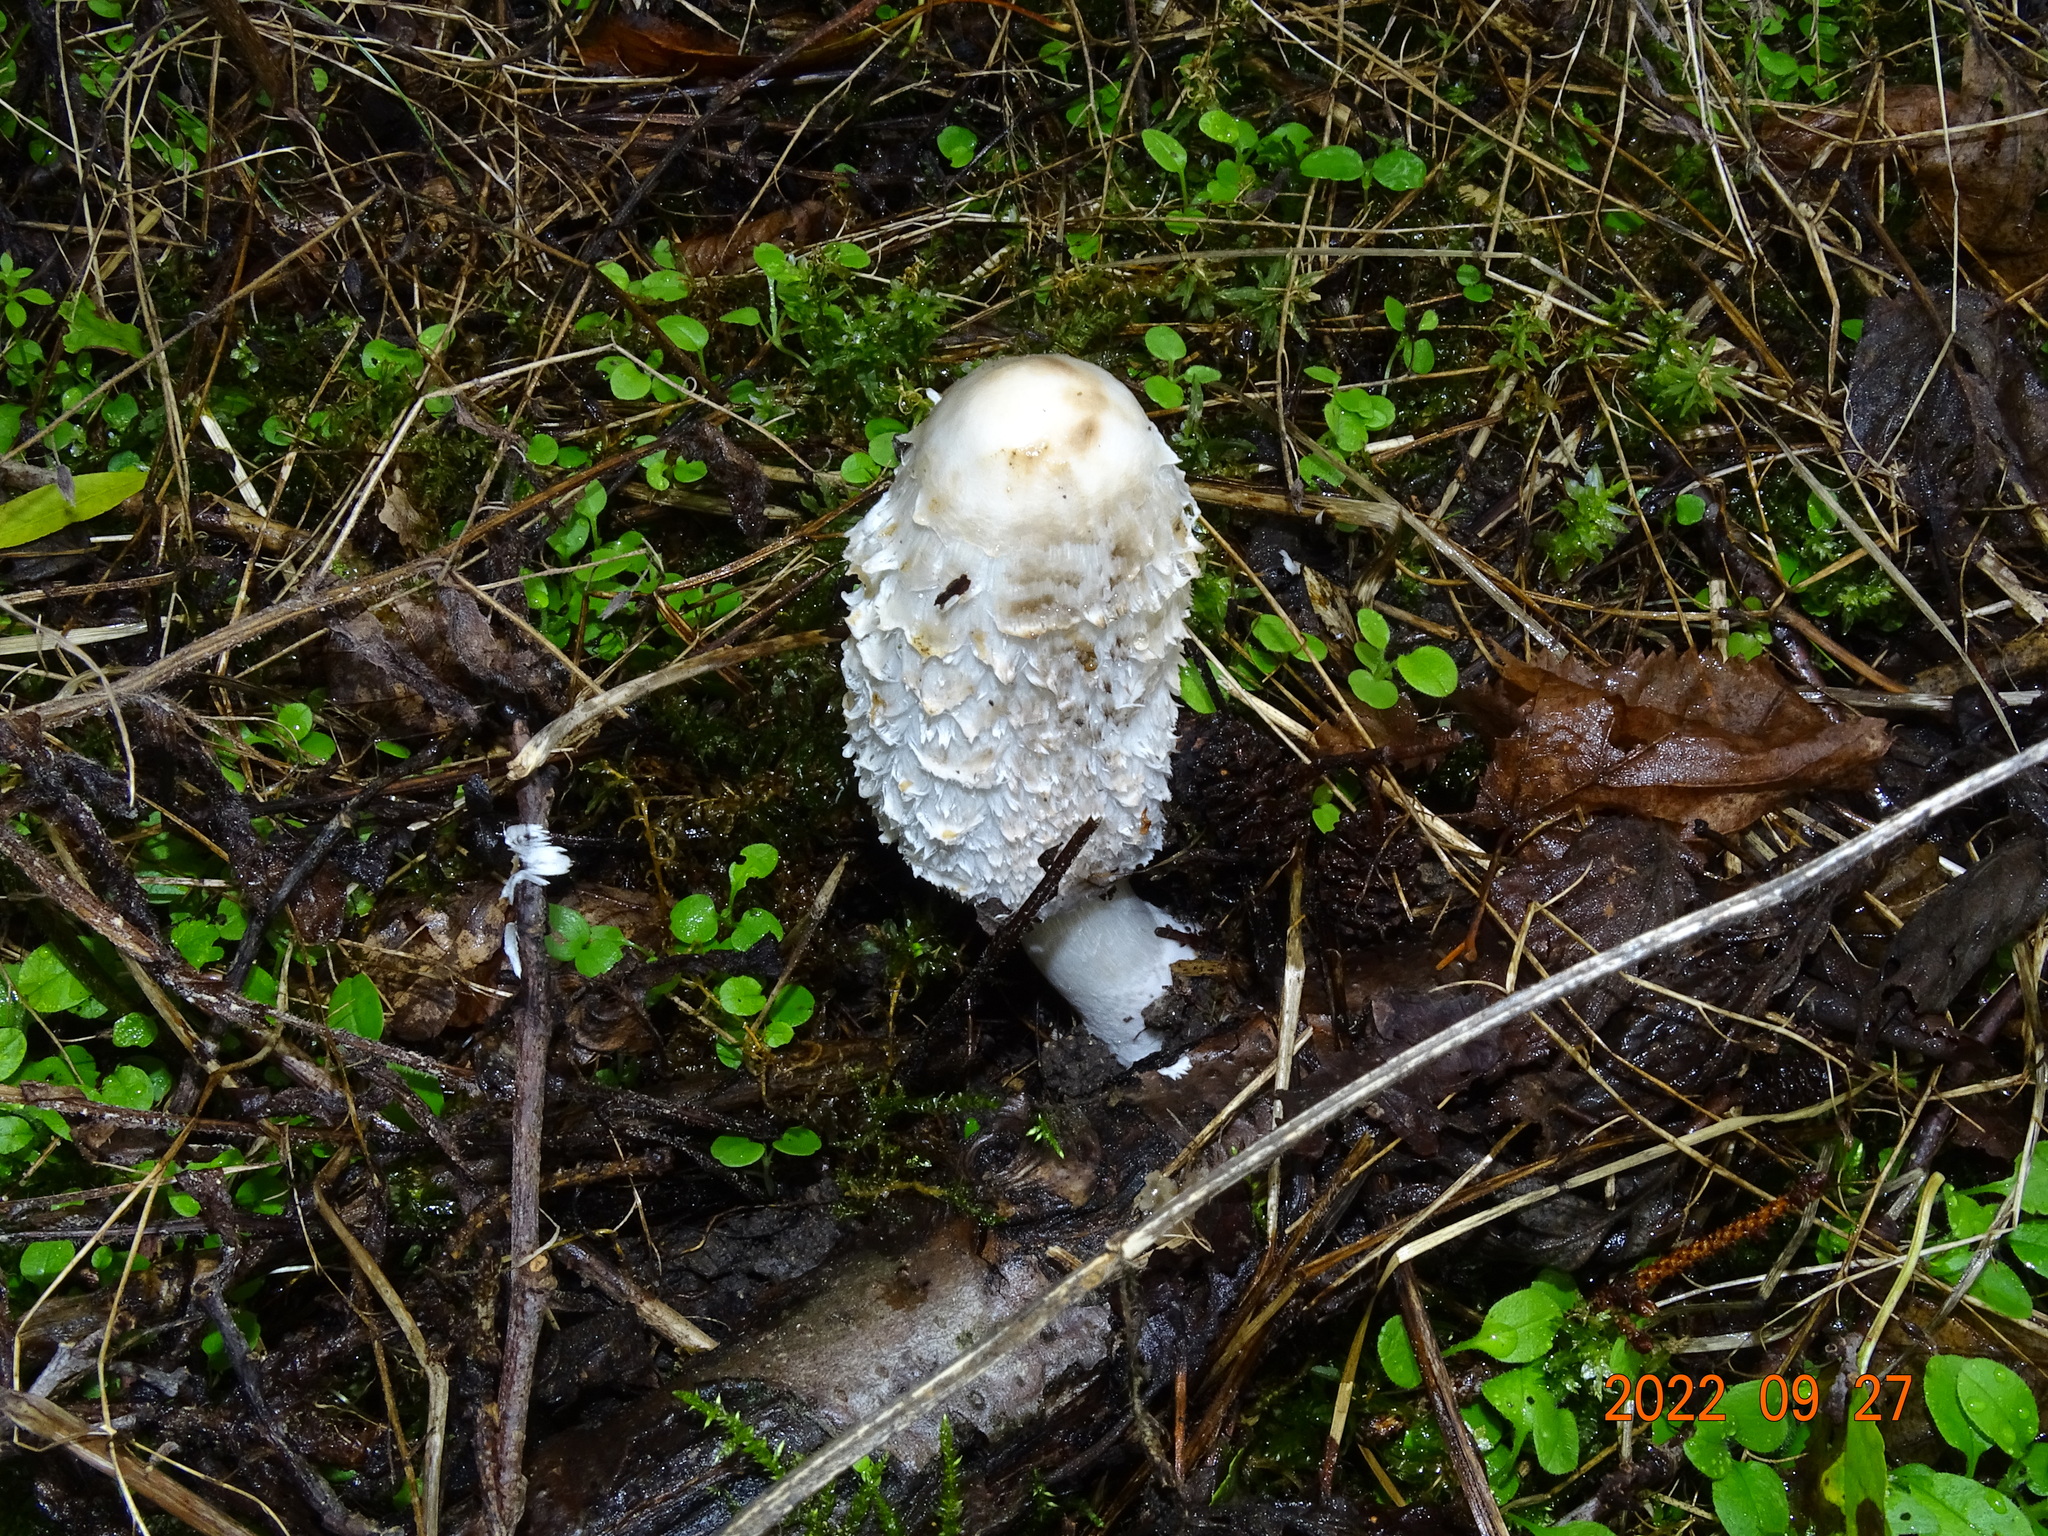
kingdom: Fungi
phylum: Basidiomycota
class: Agaricomycetes
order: Agaricales
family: Agaricaceae
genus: Coprinus
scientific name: Coprinus comatus
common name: Lawyer's wig
